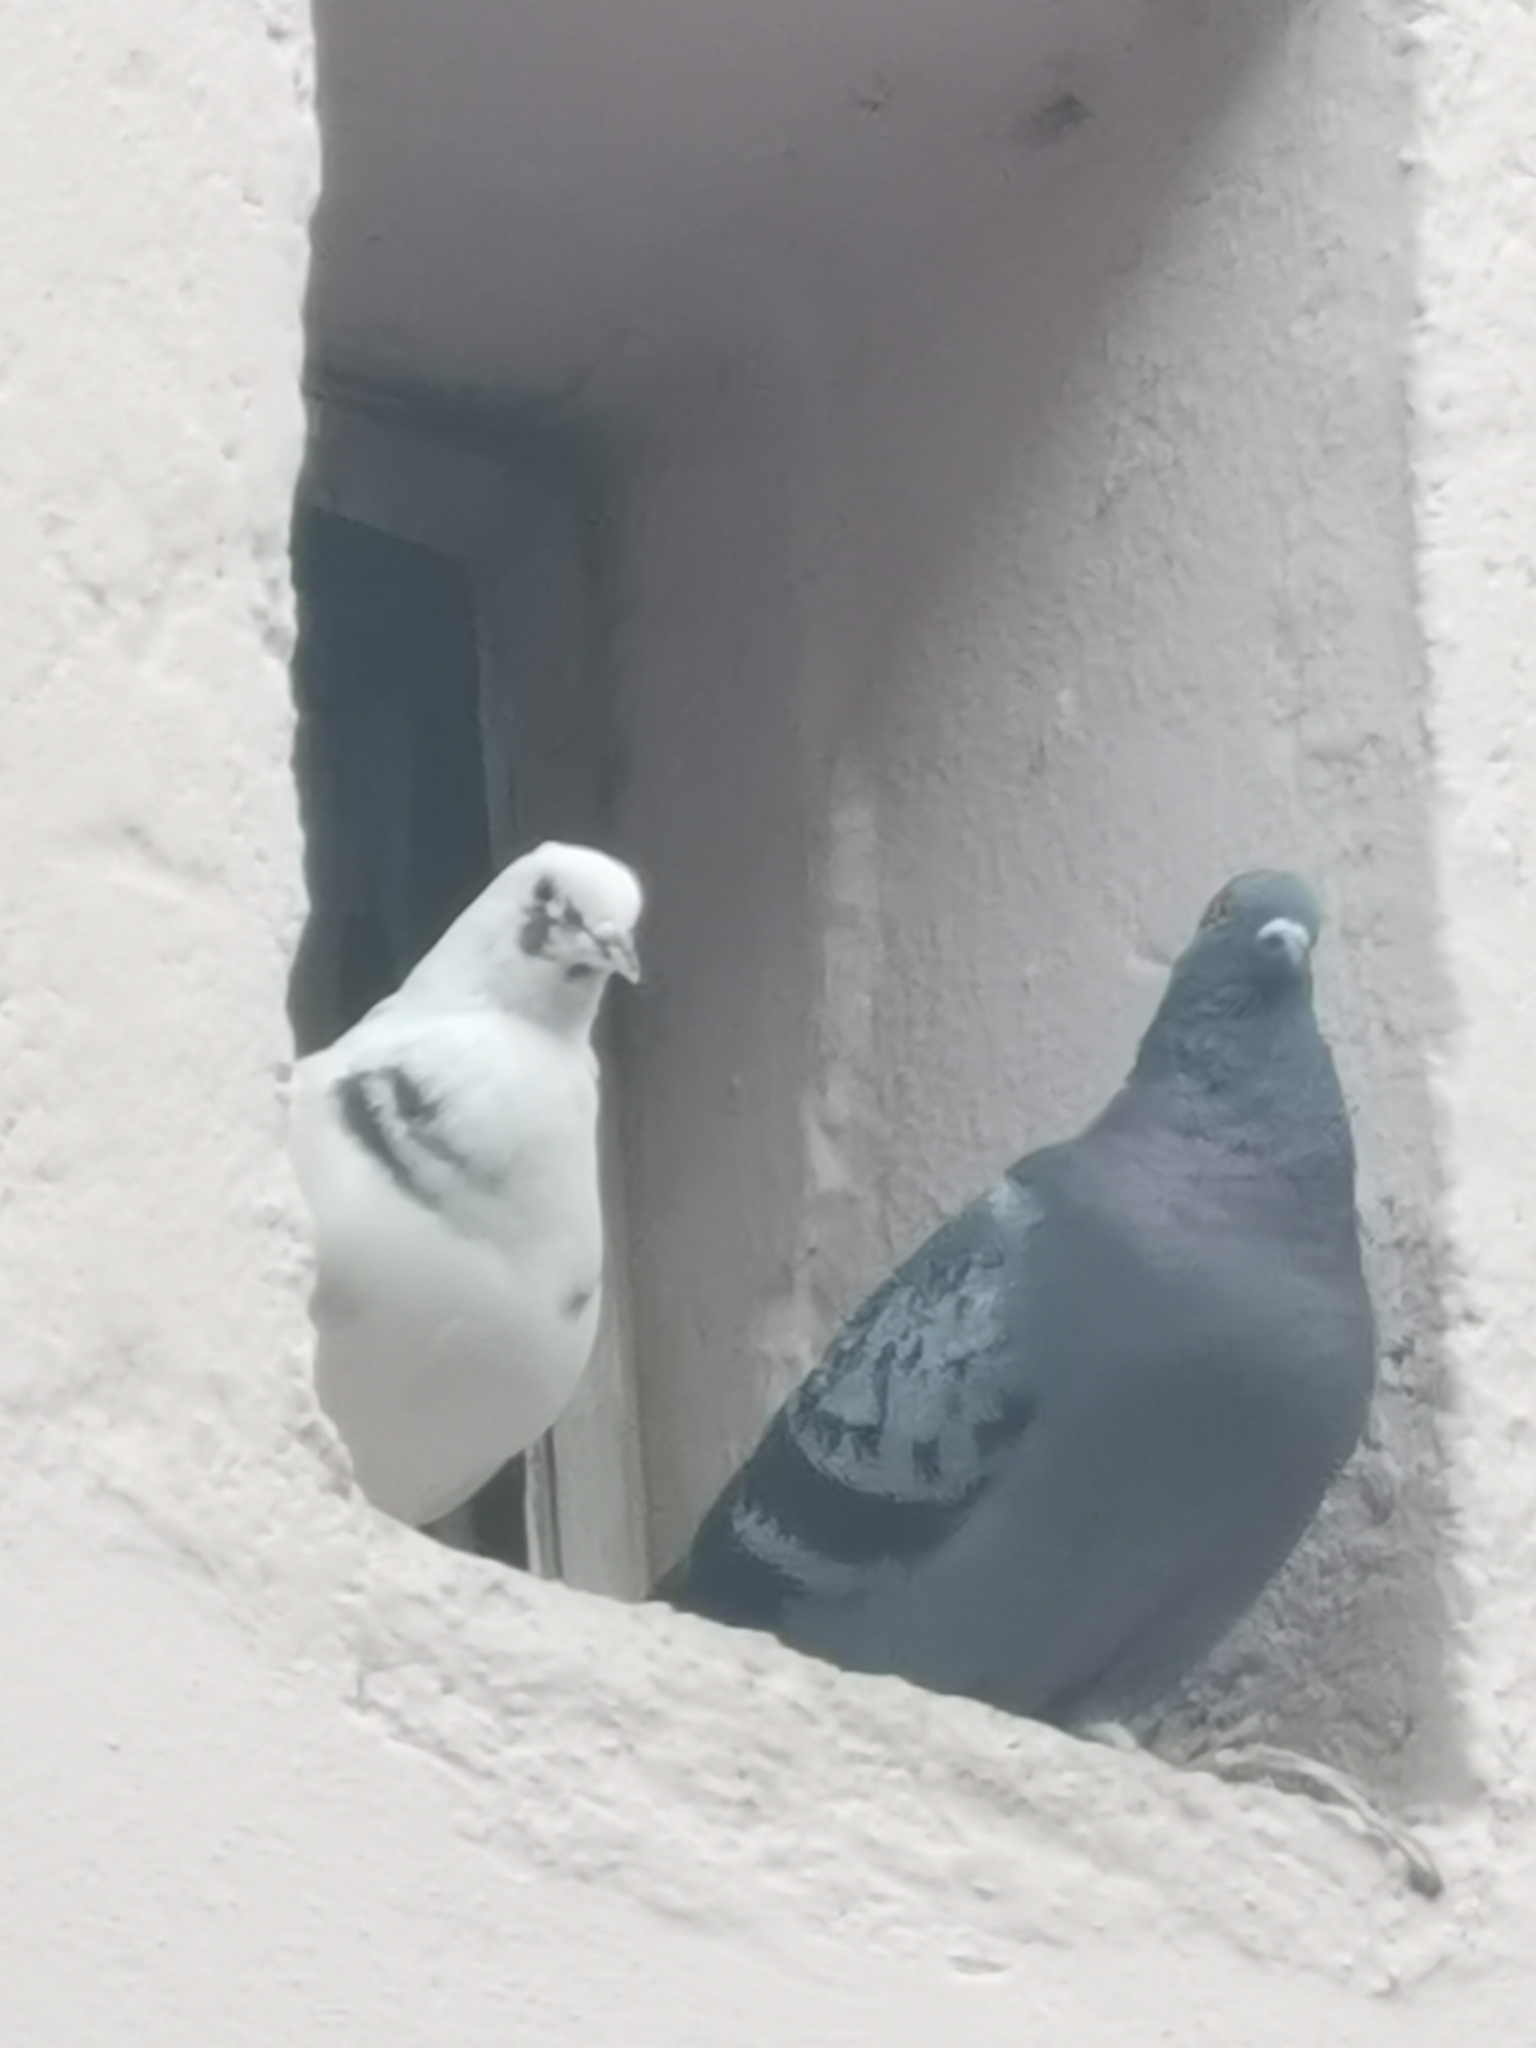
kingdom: Animalia
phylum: Chordata
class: Aves
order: Columbiformes
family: Columbidae
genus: Columba
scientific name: Columba livia
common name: Rock pigeon
